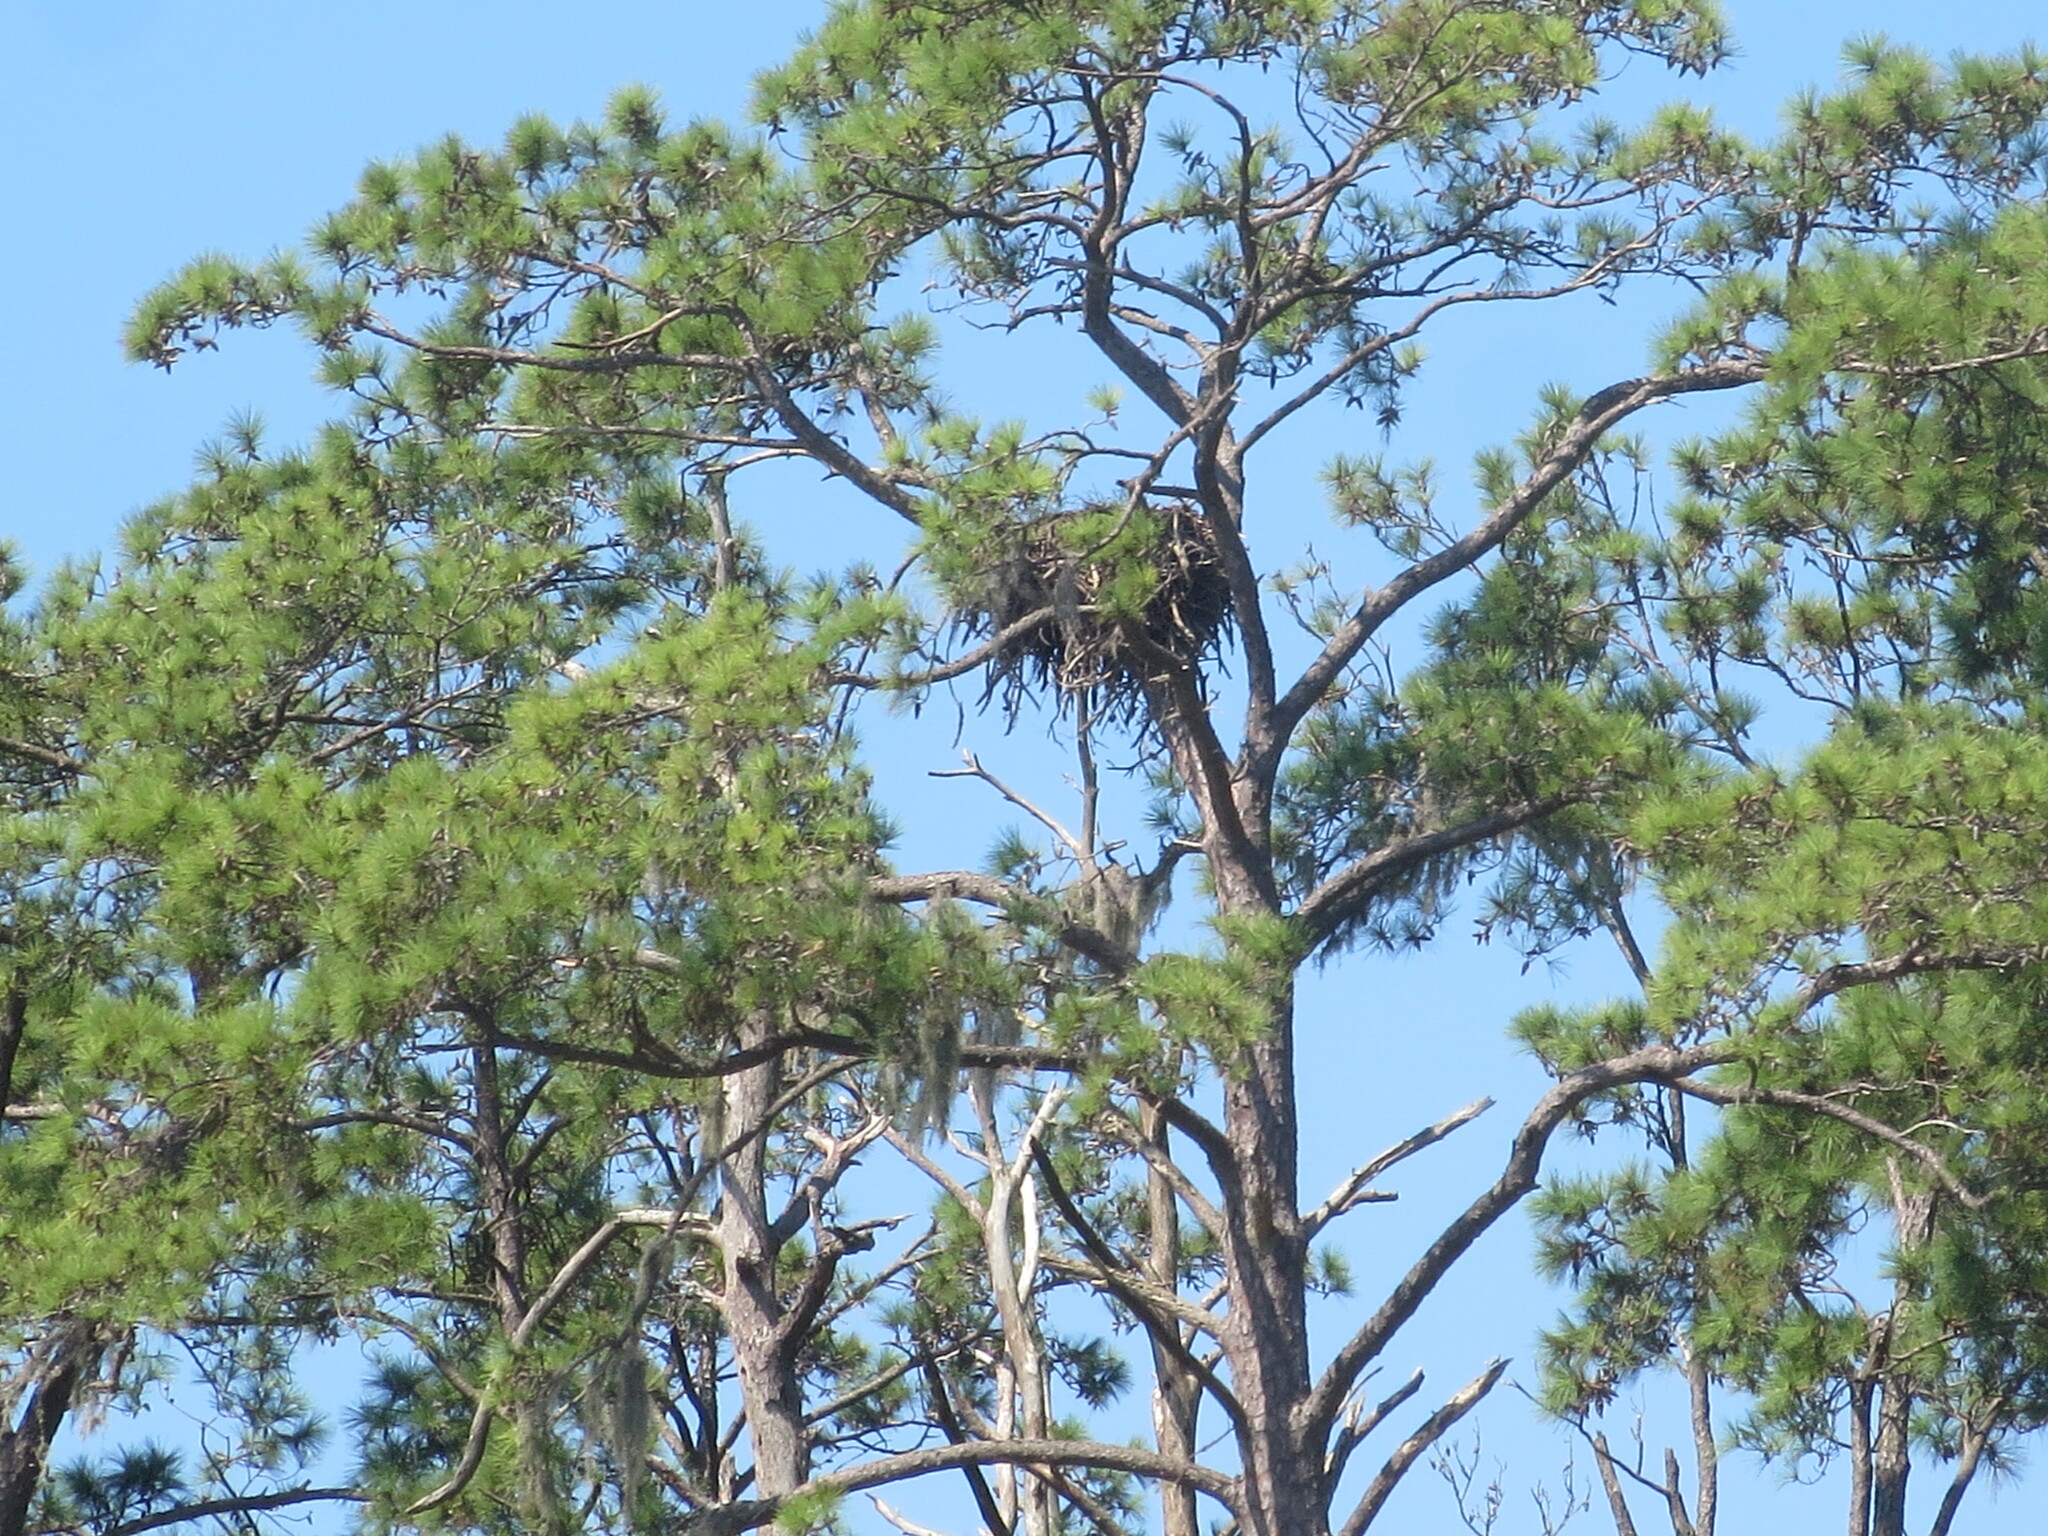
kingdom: Animalia
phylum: Chordata
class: Aves
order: Accipitriformes
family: Accipitridae
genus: Haliaeetus
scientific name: Haliaeetus leucocephalus
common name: Bald eagle
